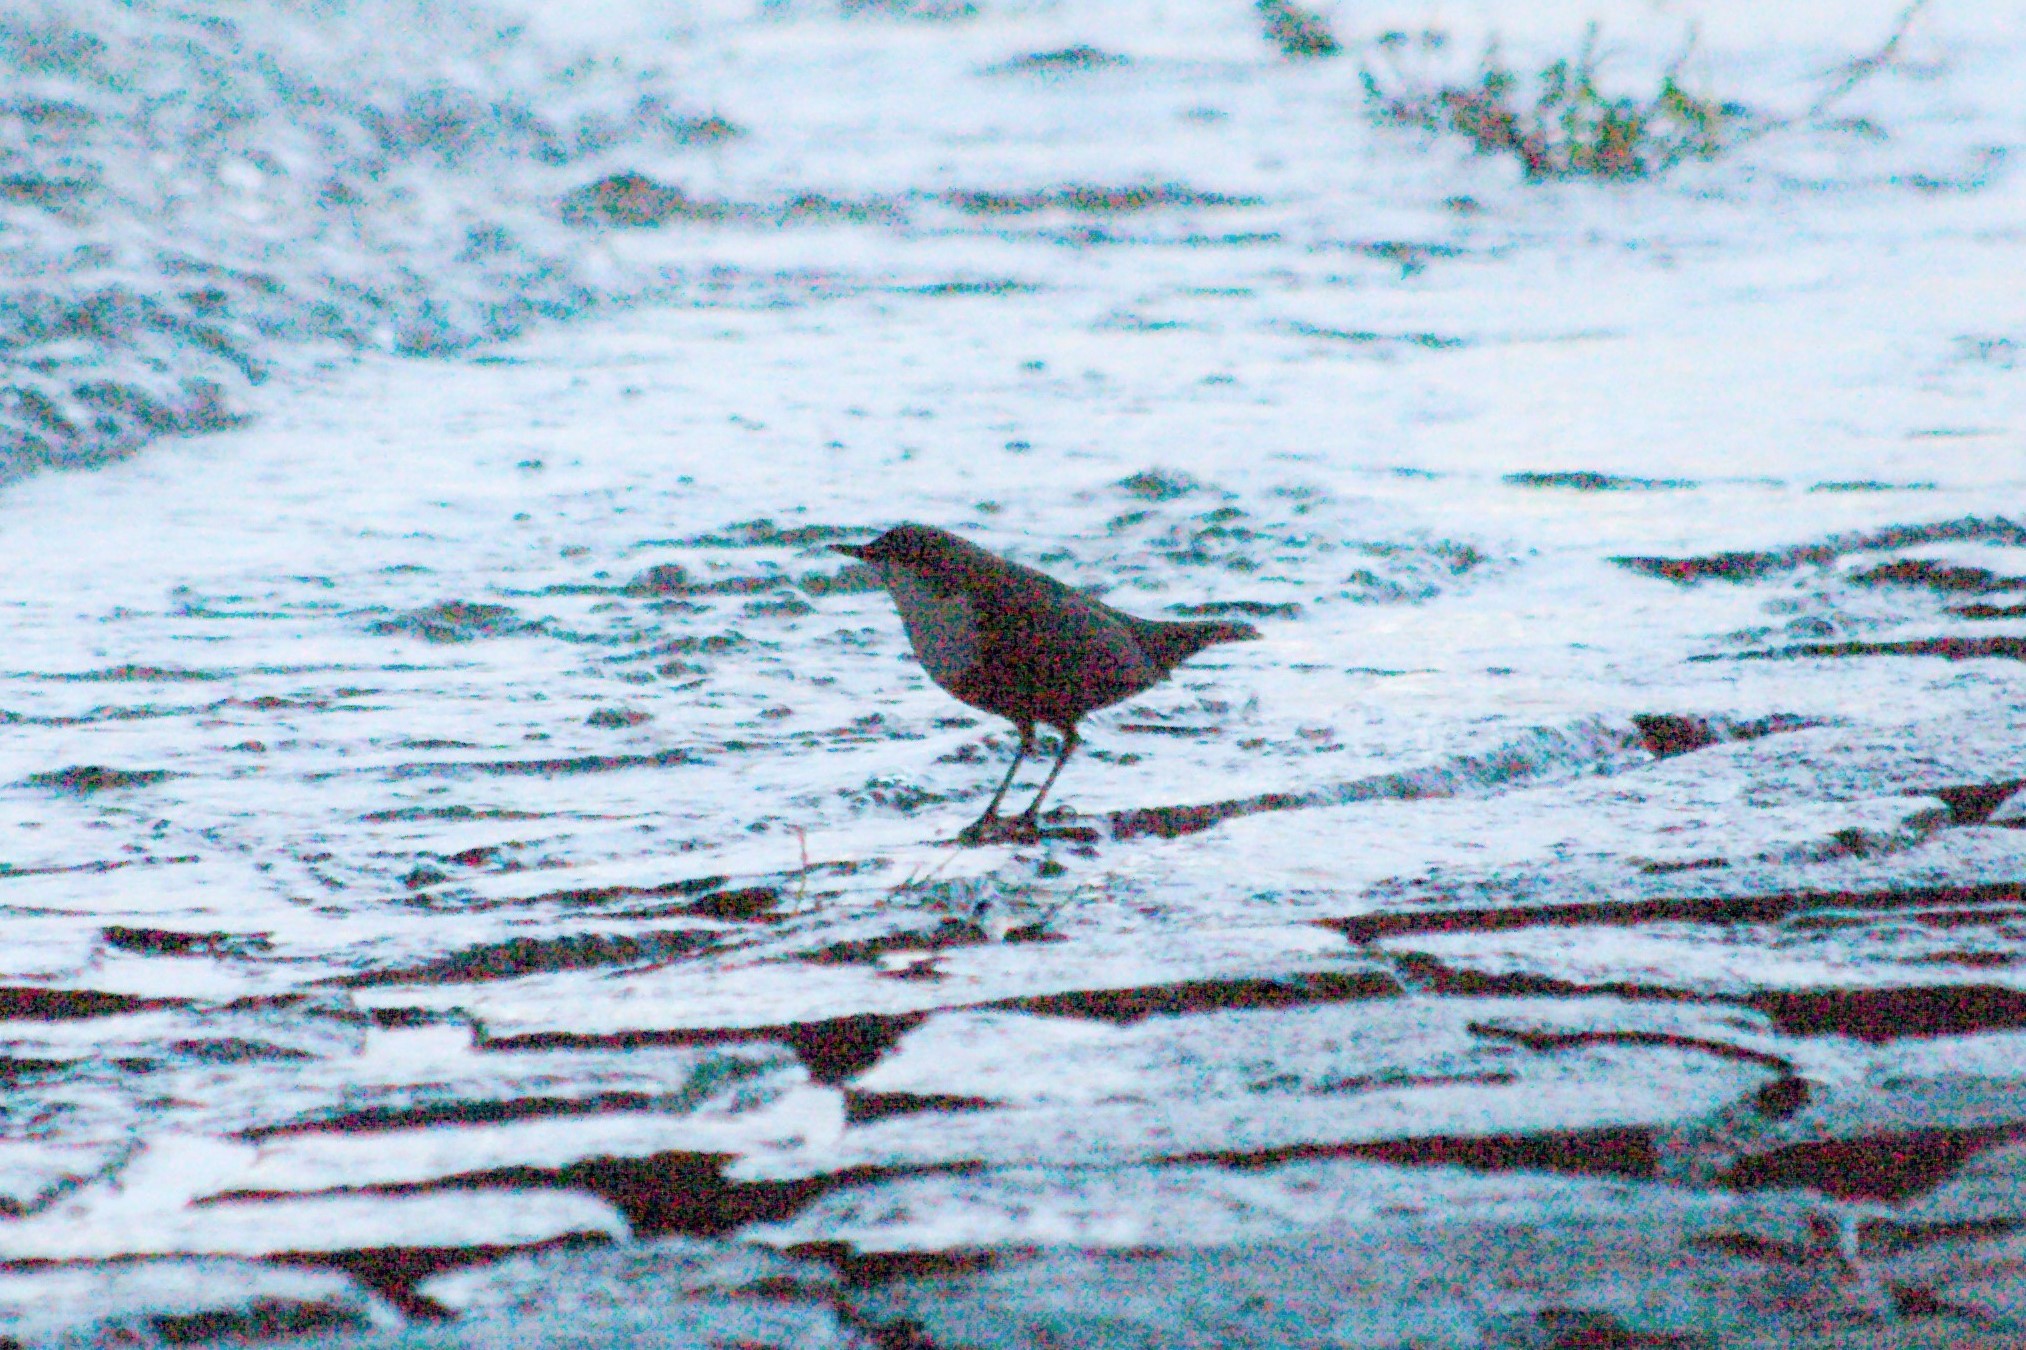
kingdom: Animalia
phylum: Chordata
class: Aves
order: Passeriformes
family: Cinclidae
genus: Cinclus
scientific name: Cinclus cinclus
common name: White-throated dipper
